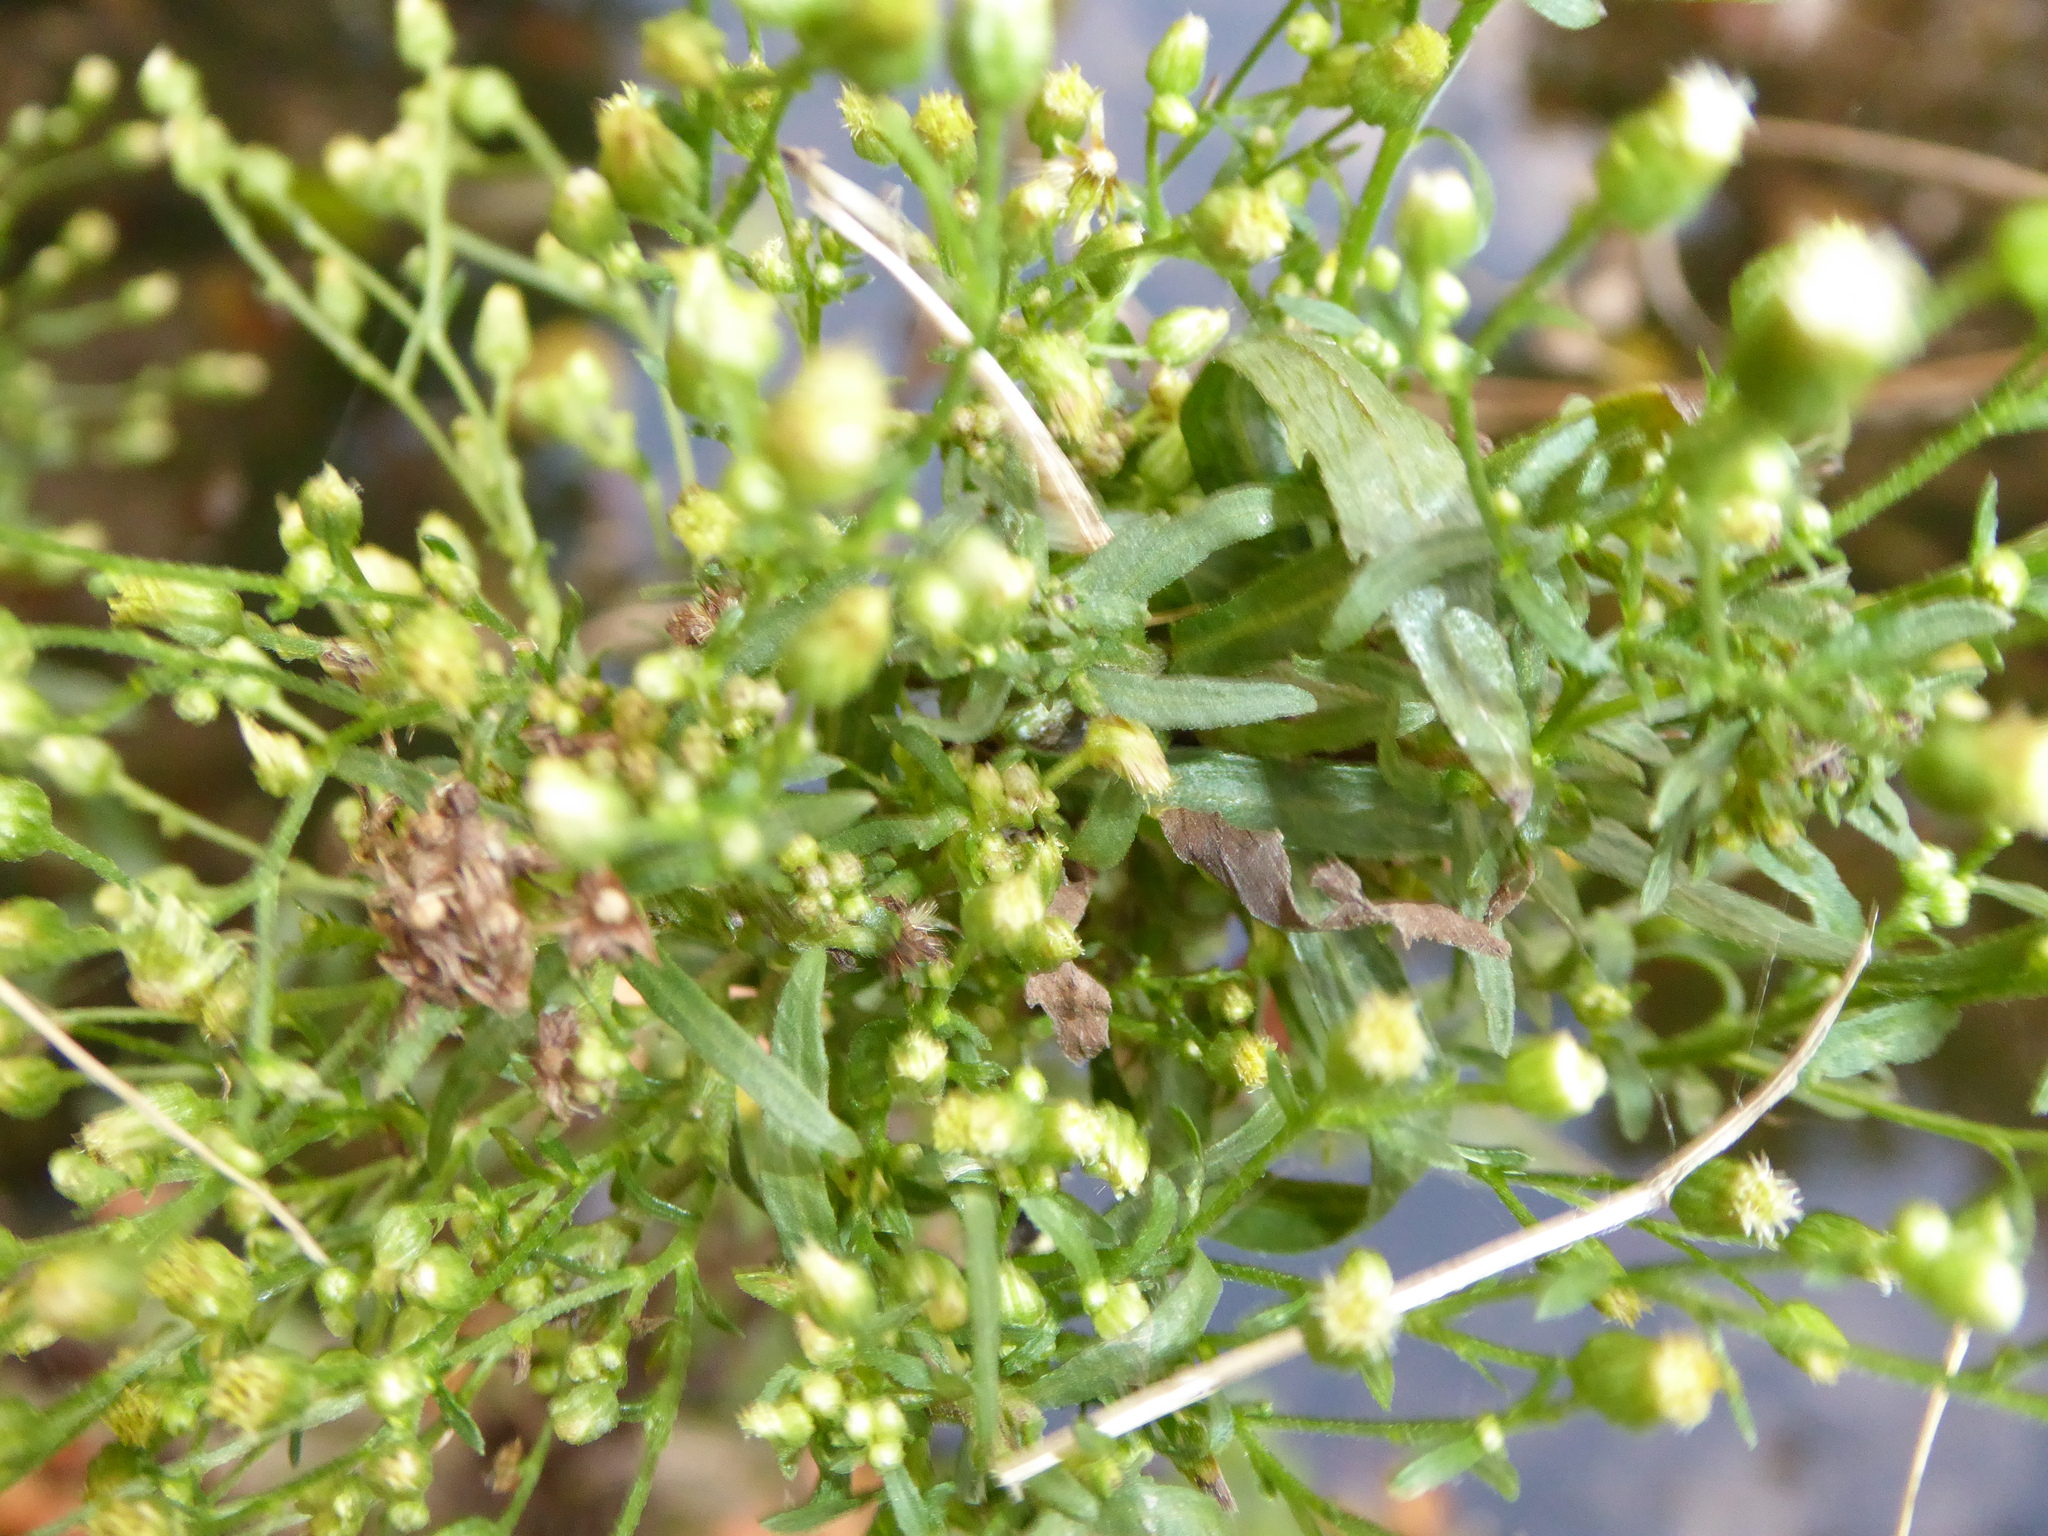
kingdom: Plantae
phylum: Tracheophyta
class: Magnoliopsida
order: Asterales
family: Asteraceae
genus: Erigeron
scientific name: Erigeron floribundus
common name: Bilbao fleabane
